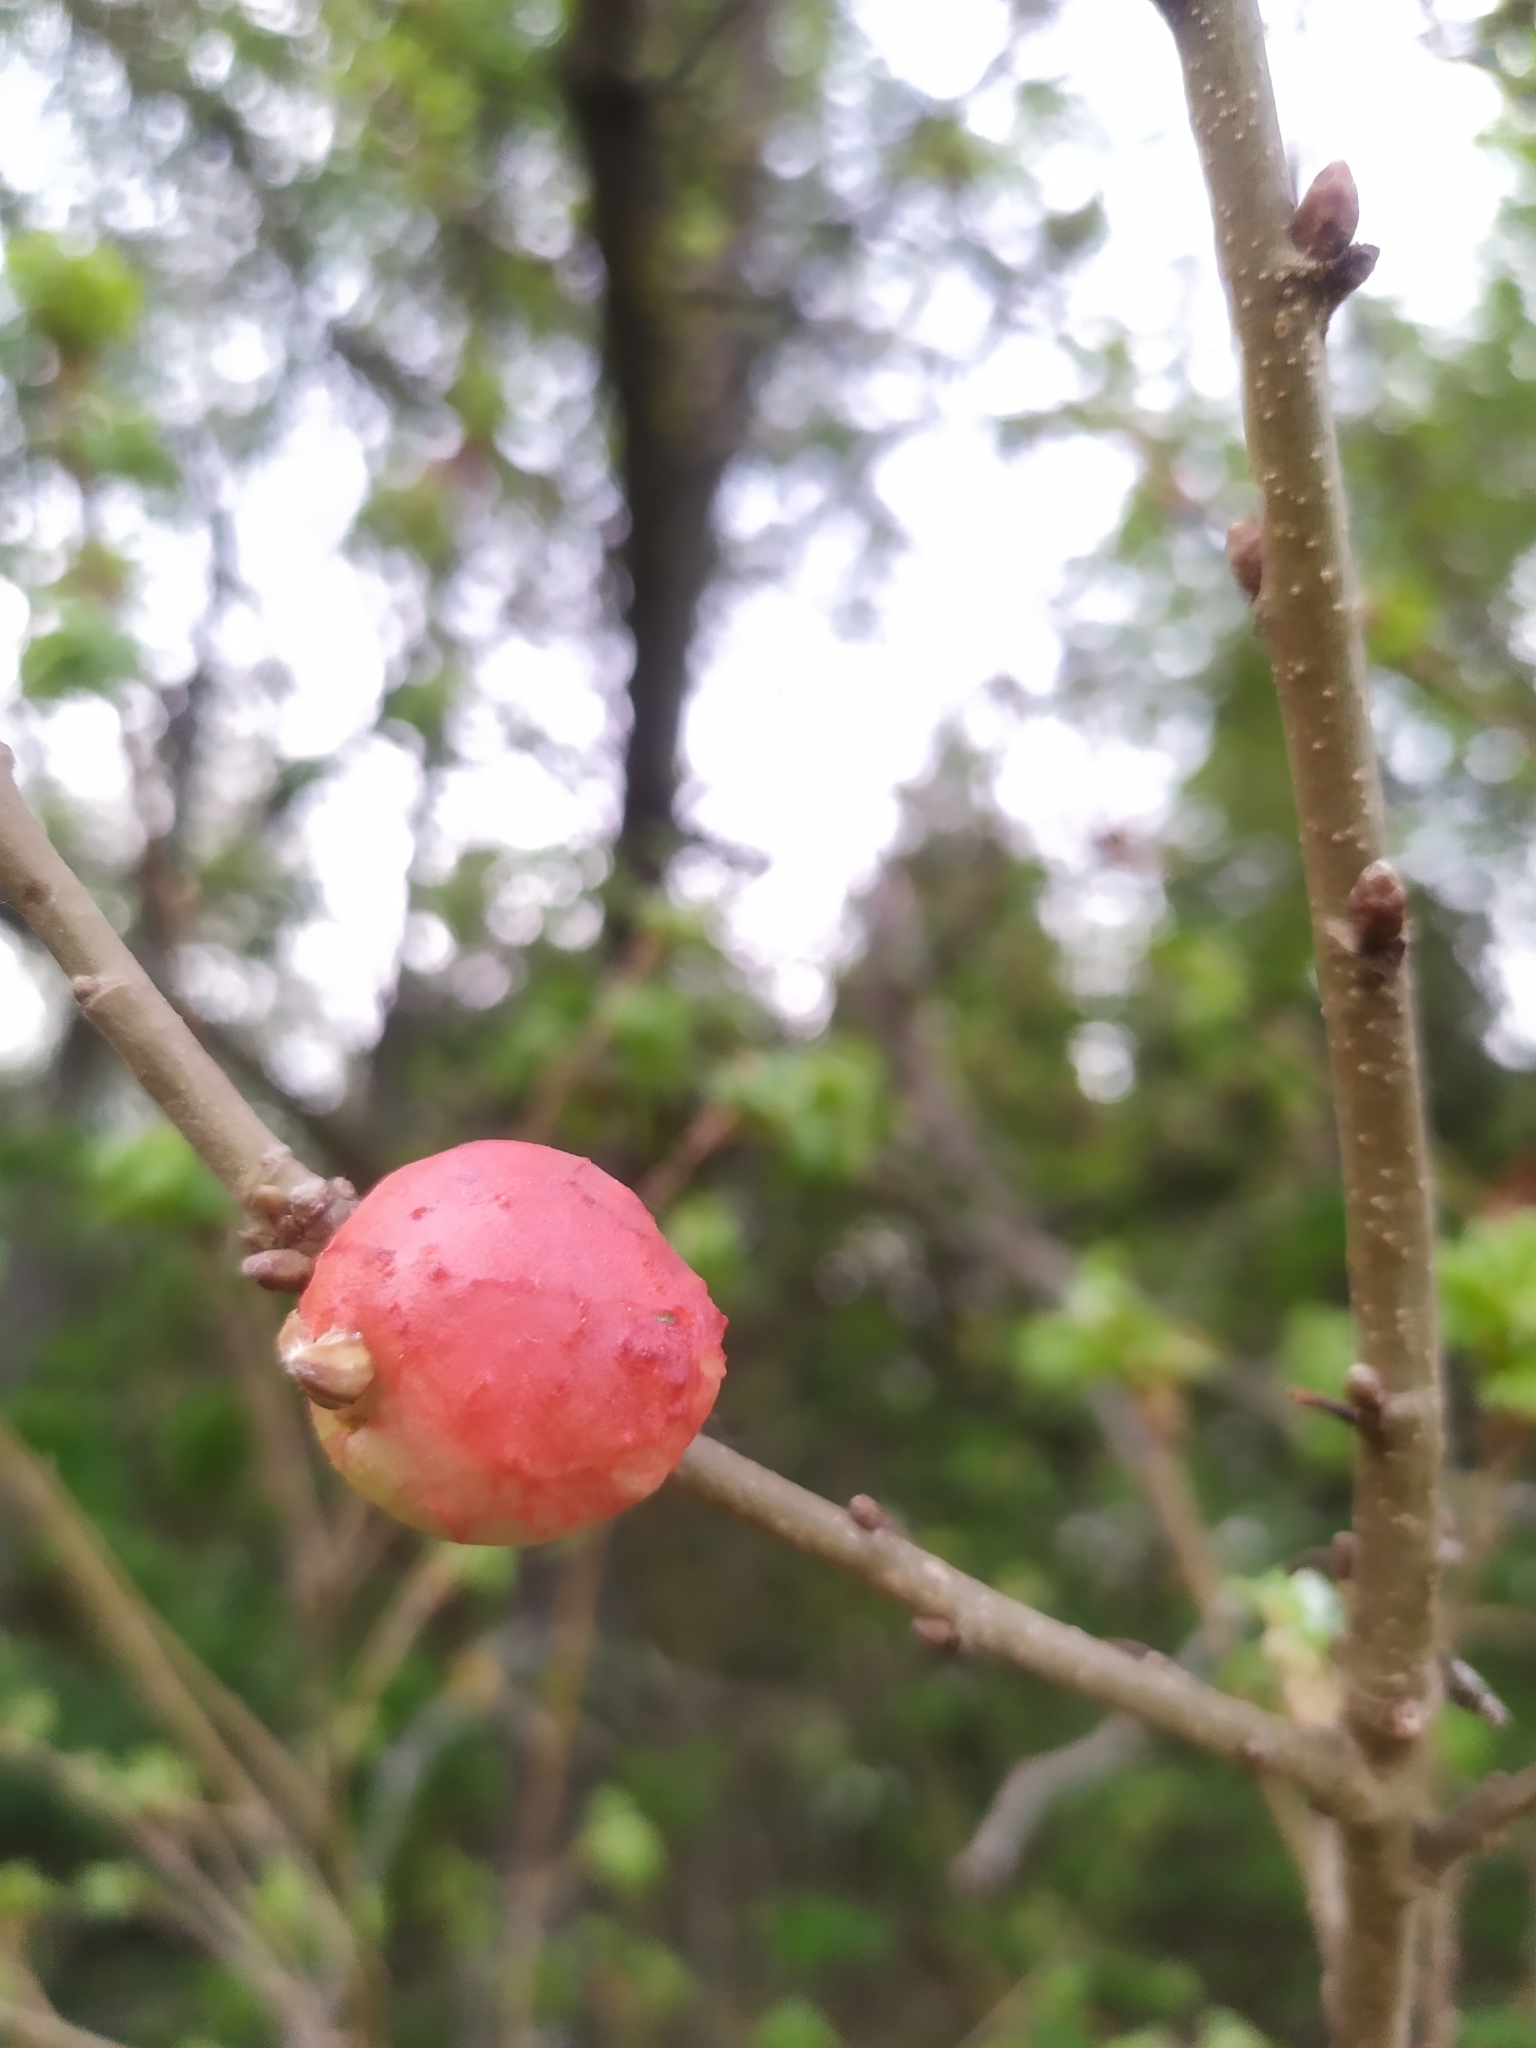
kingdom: Animalia
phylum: Arthropoda
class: Insecta
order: Hymenoptera
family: Cynipidae
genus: Biorhiza
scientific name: Biorhiza pallida
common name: Oak apple
